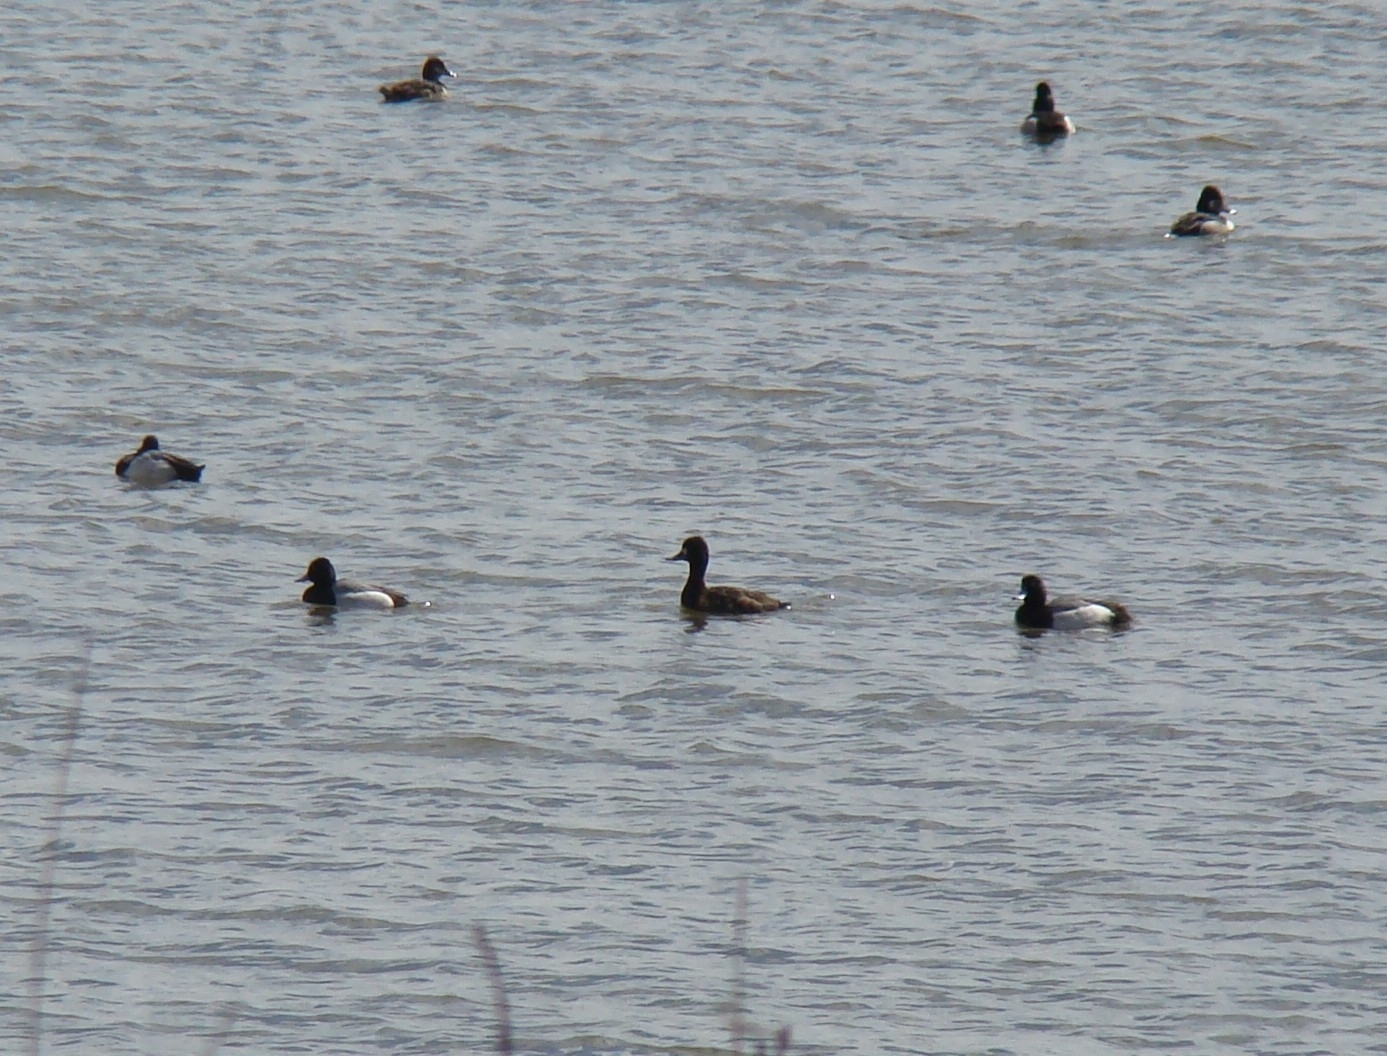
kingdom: Animalia
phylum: Chordata
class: Aves
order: Anseriformes
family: Anatidae
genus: Aythya
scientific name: Aythya affinis
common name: Lesser scaup
